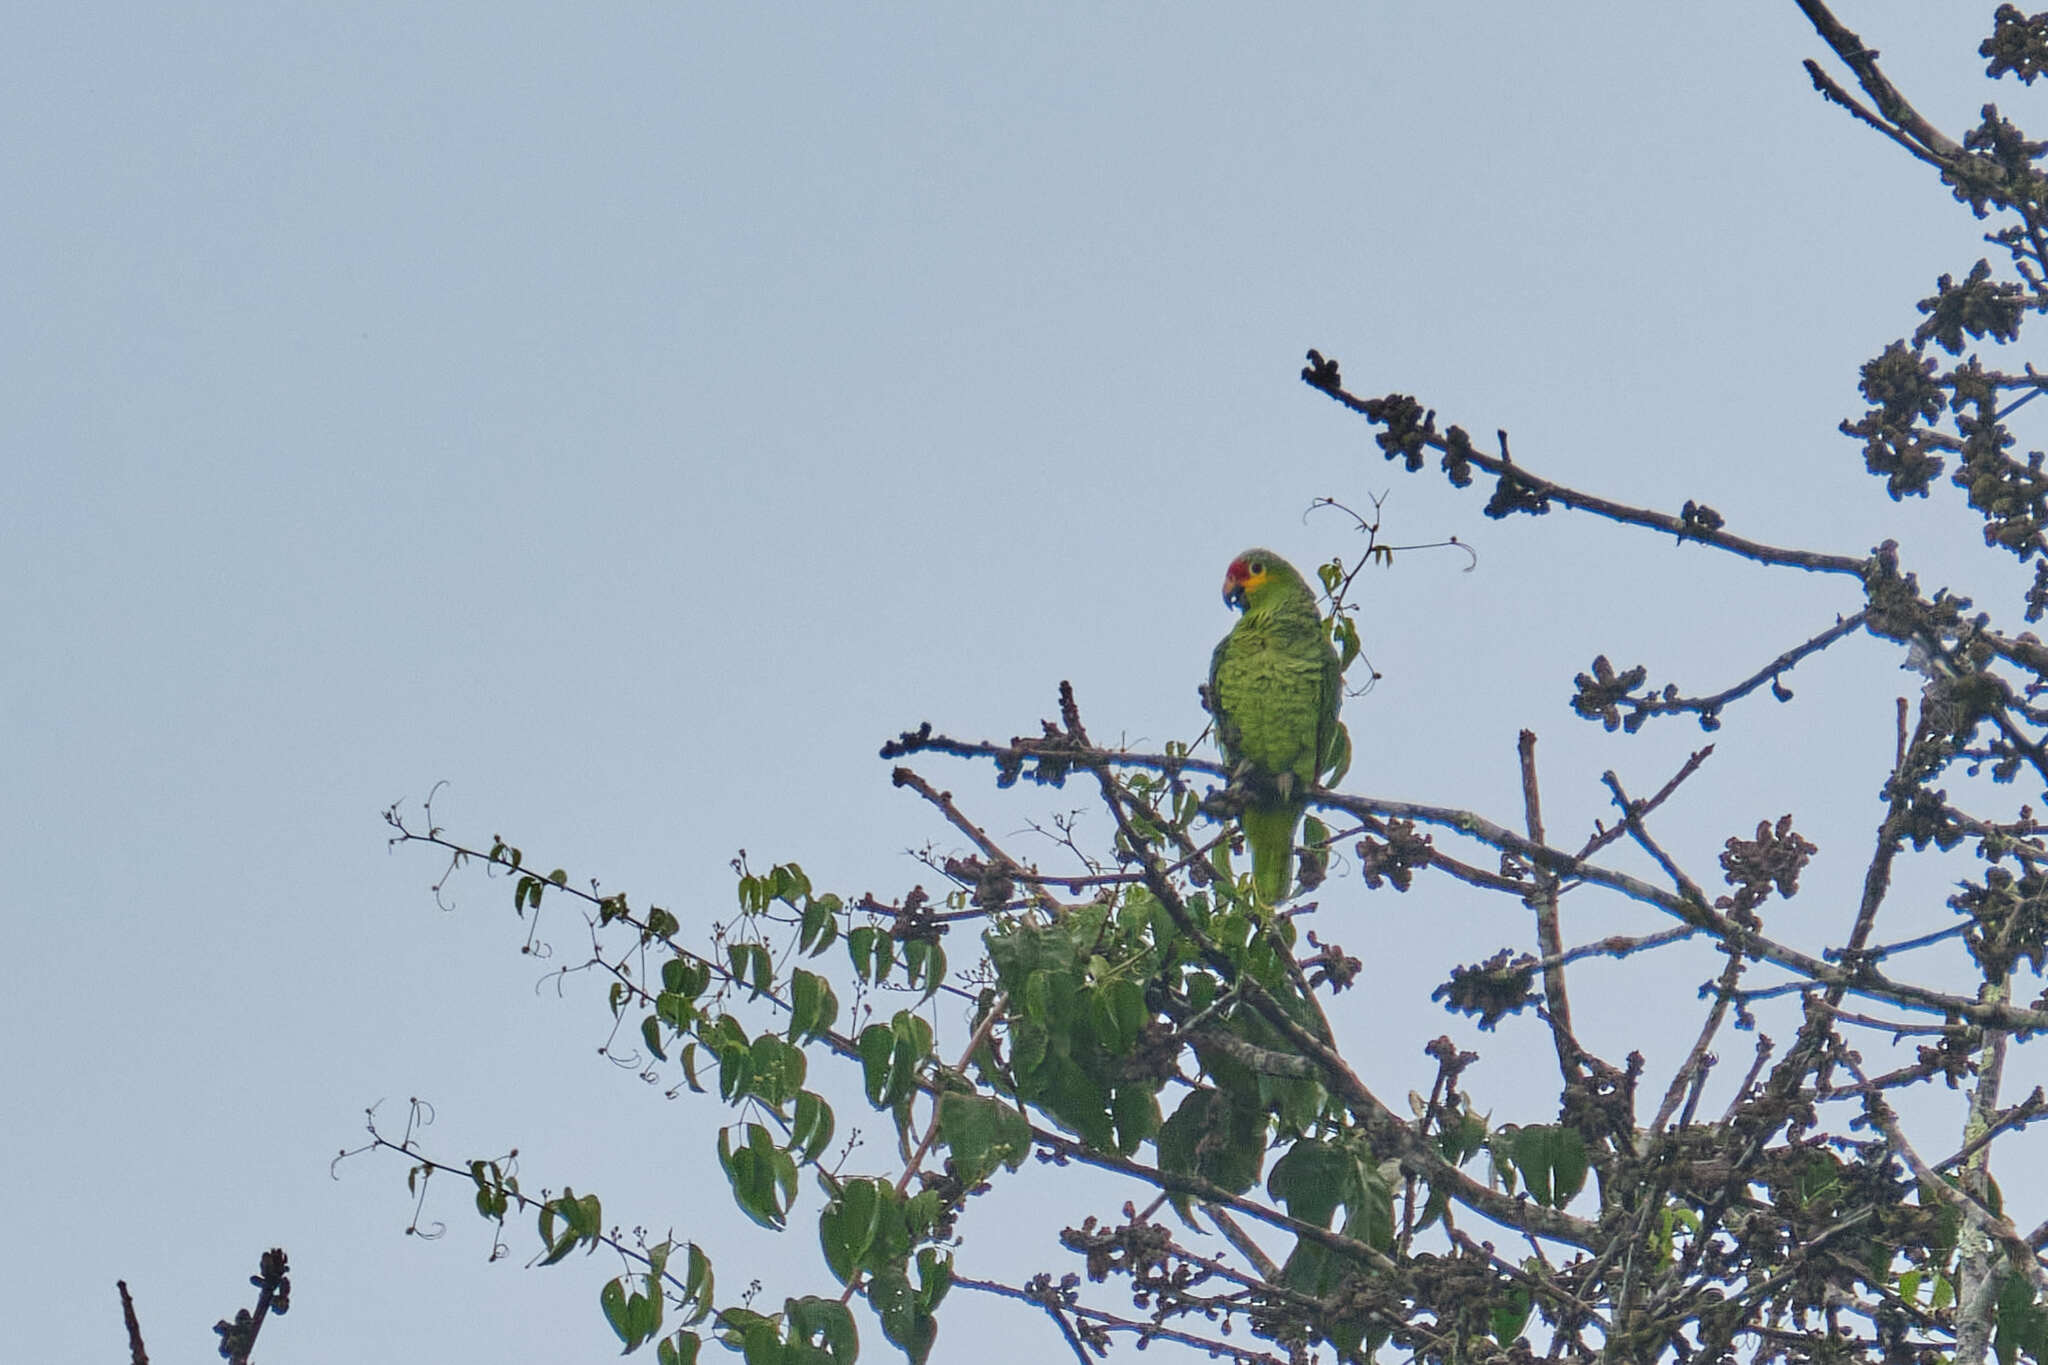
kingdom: Animalia
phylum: Chordata
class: Aves
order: Psittaciformes
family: Psittacidae
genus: Amazona
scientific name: Amazona autumnalis
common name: Red-lored amazon
